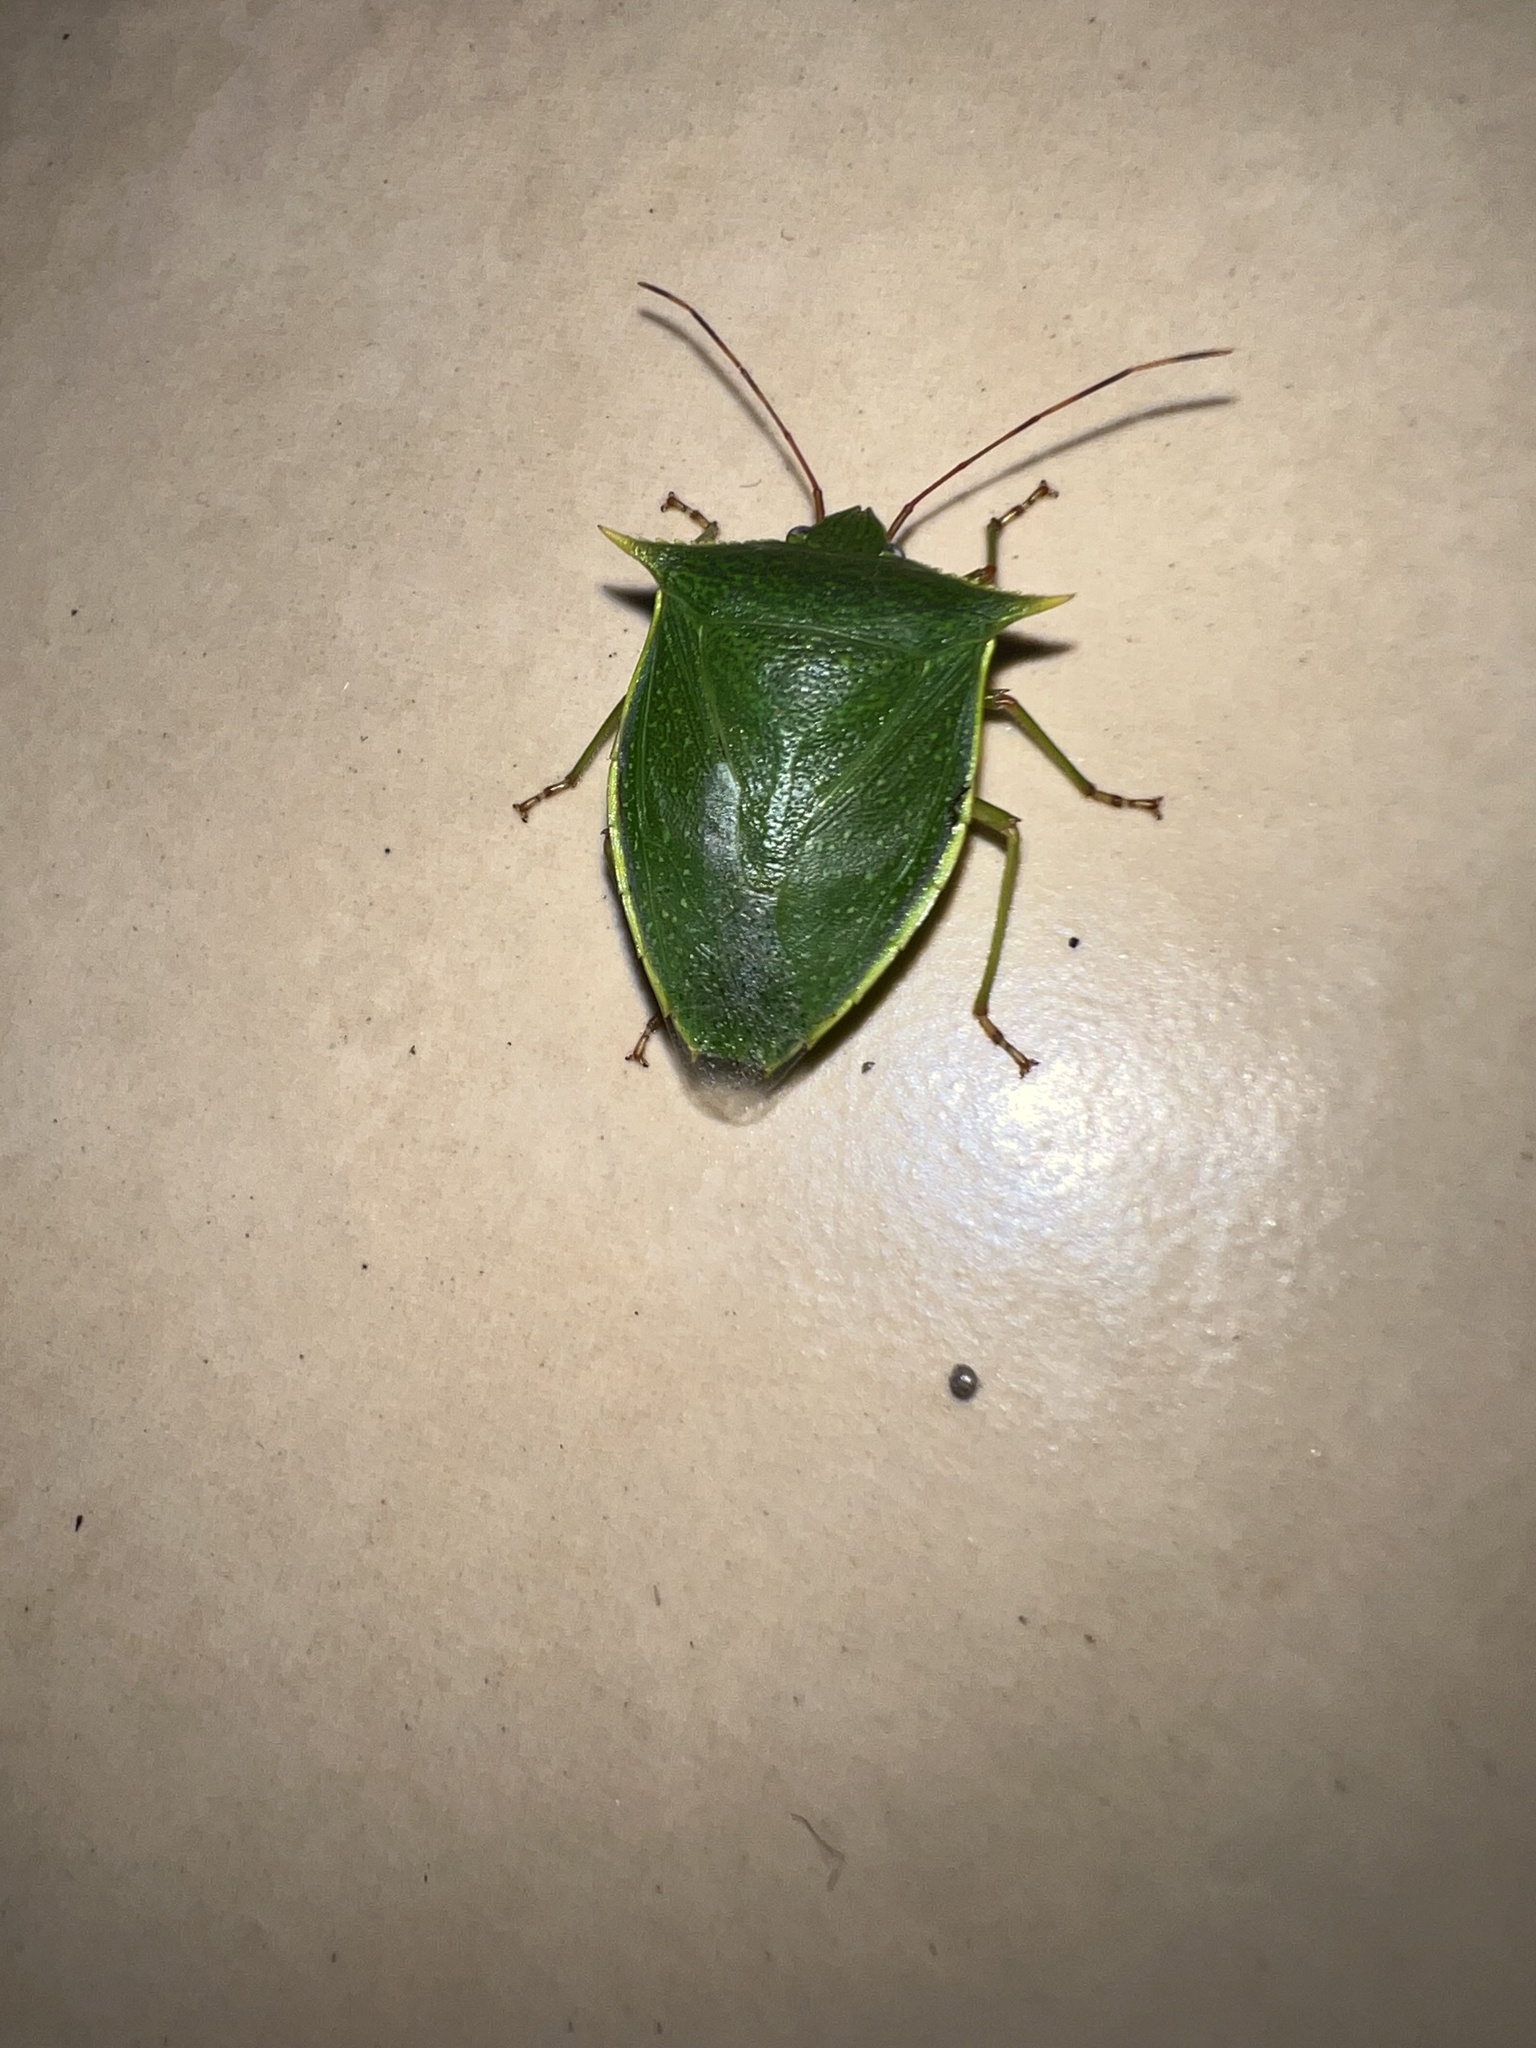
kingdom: Animalia
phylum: Arthropoda
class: Insecta
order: Hemiptera
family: Pentatomidae
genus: Loxa
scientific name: Loxa viridis
